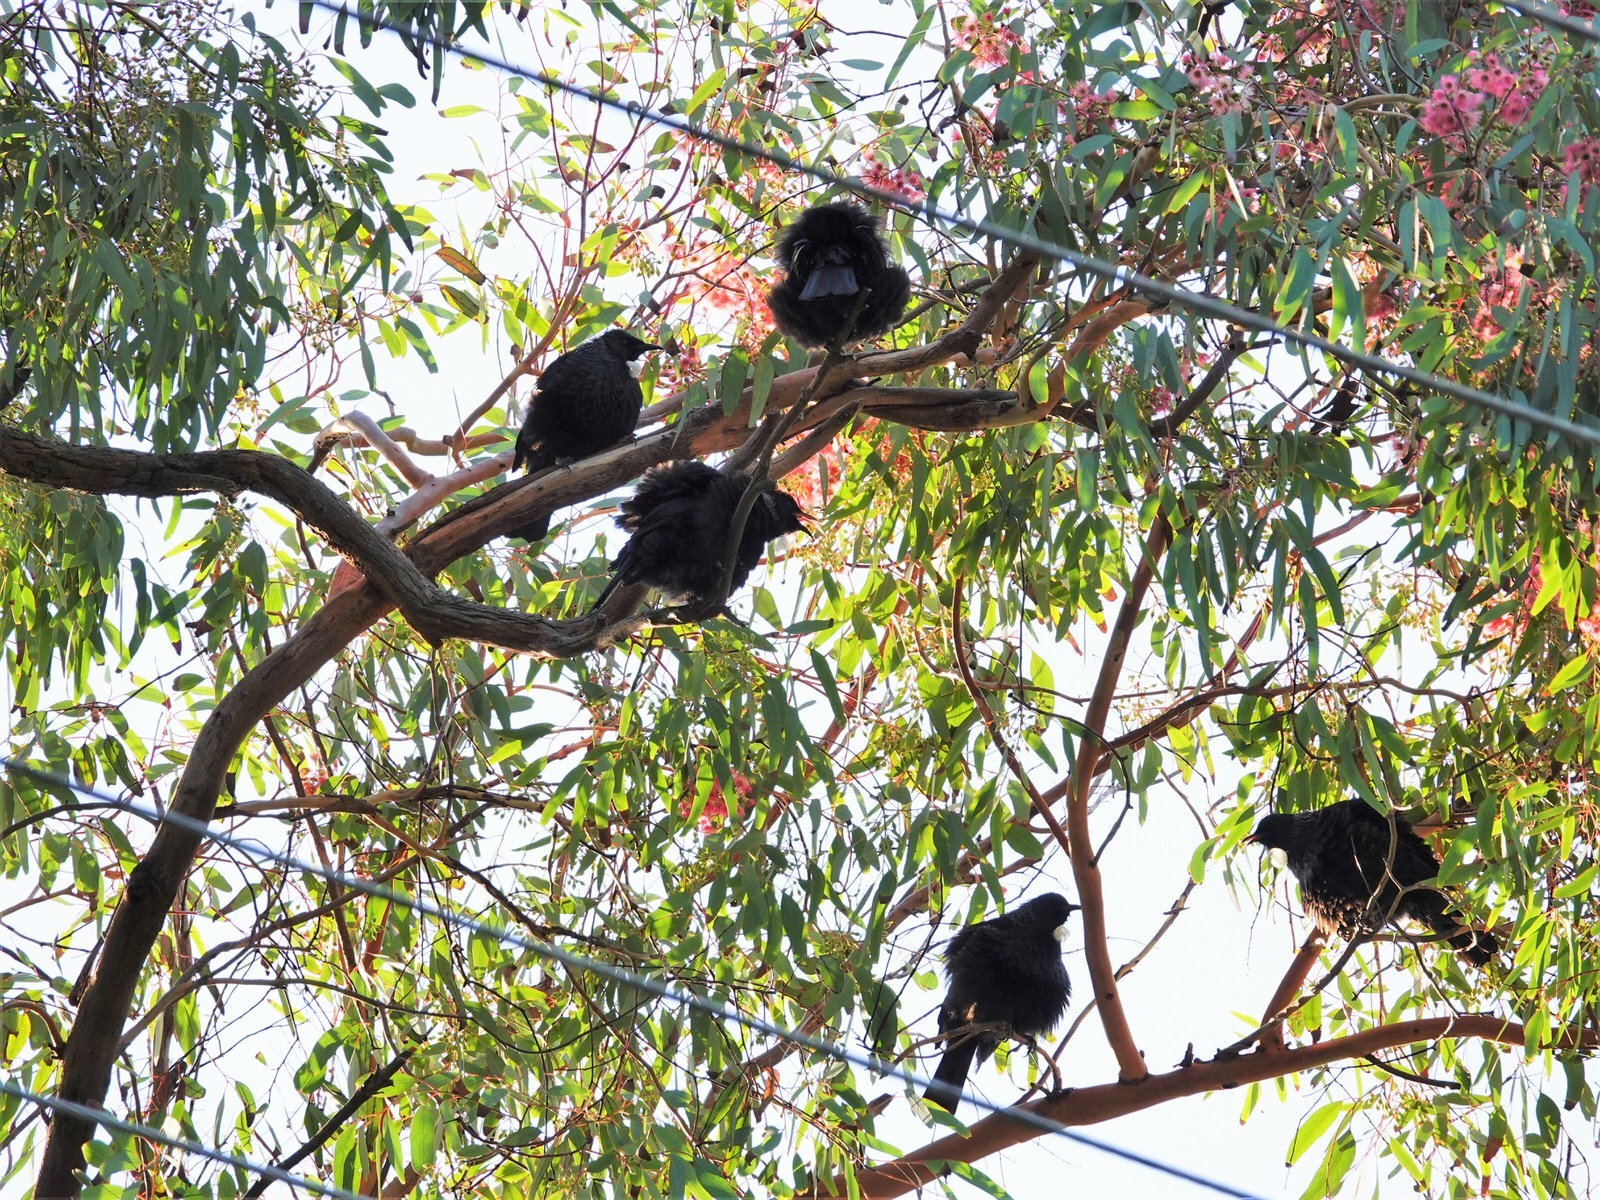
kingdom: Animalia
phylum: Chordata
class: Aves
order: Passeriformes
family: Meliphagidae
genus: Prosthemadera
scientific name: Prosthemadera novaeseelandiae
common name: Tui
